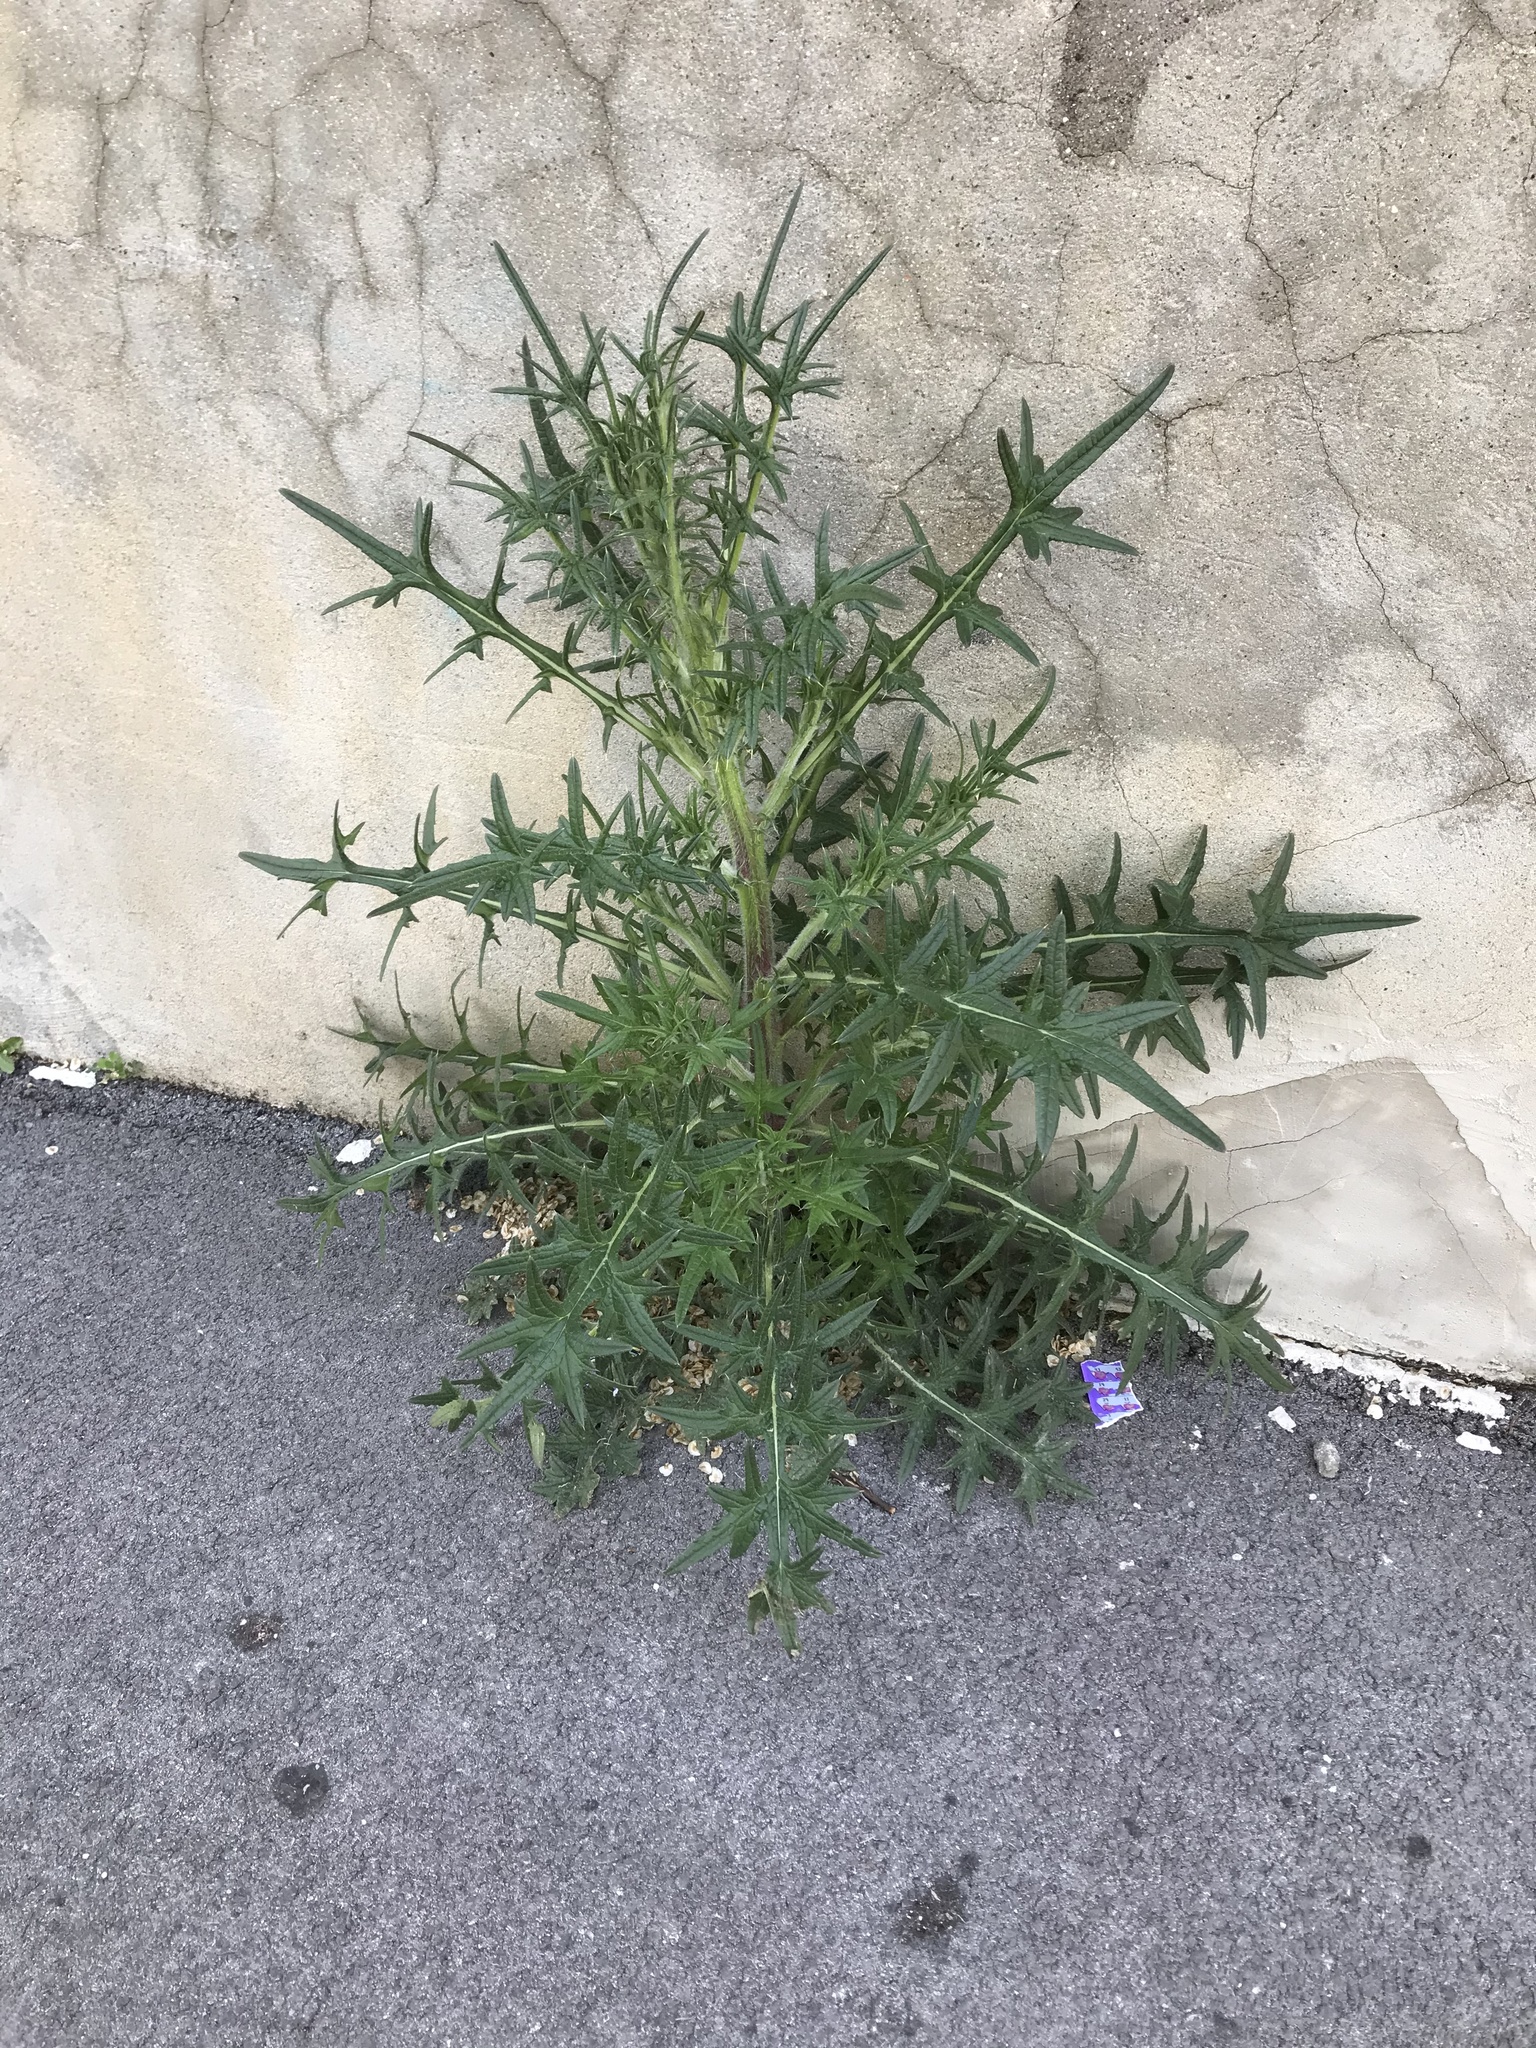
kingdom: Plantae
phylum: Tracheophyta
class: Magnoliopsida
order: Asterales
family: Asteraceae
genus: Cirsium
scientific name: Cirsium vulgare
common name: Bull thistle
